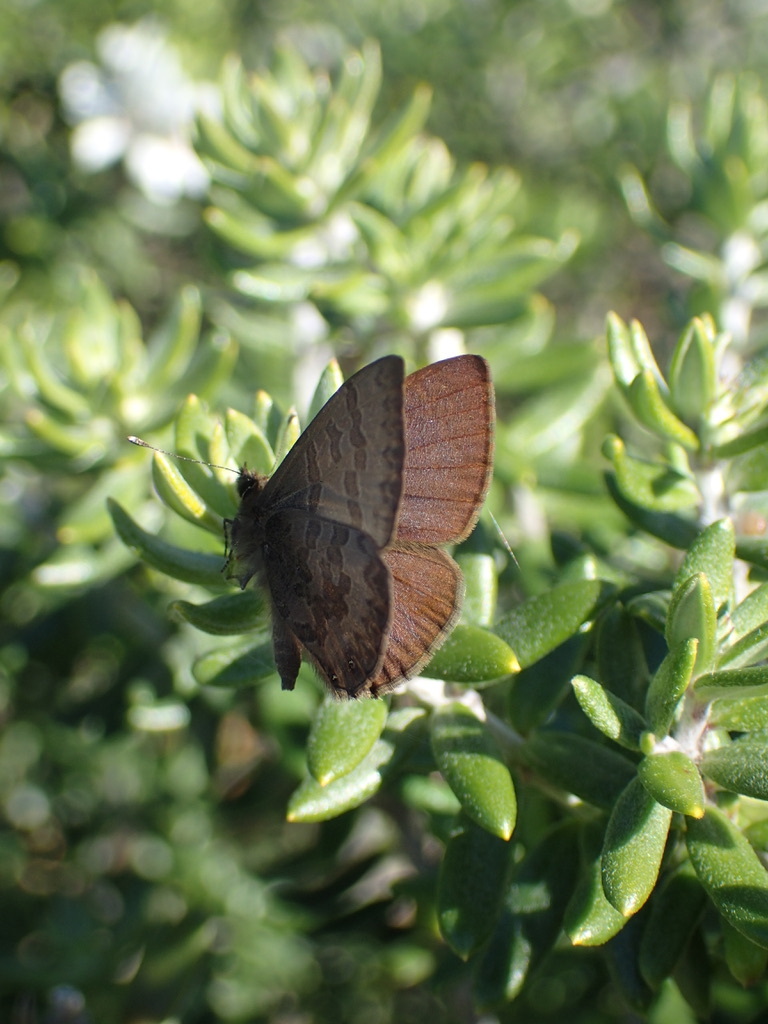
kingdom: Animalia
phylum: Arthropoda
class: Insecta
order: Lepidoptera
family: Lycaenidae
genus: Prosotas
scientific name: Prosotas felderi
